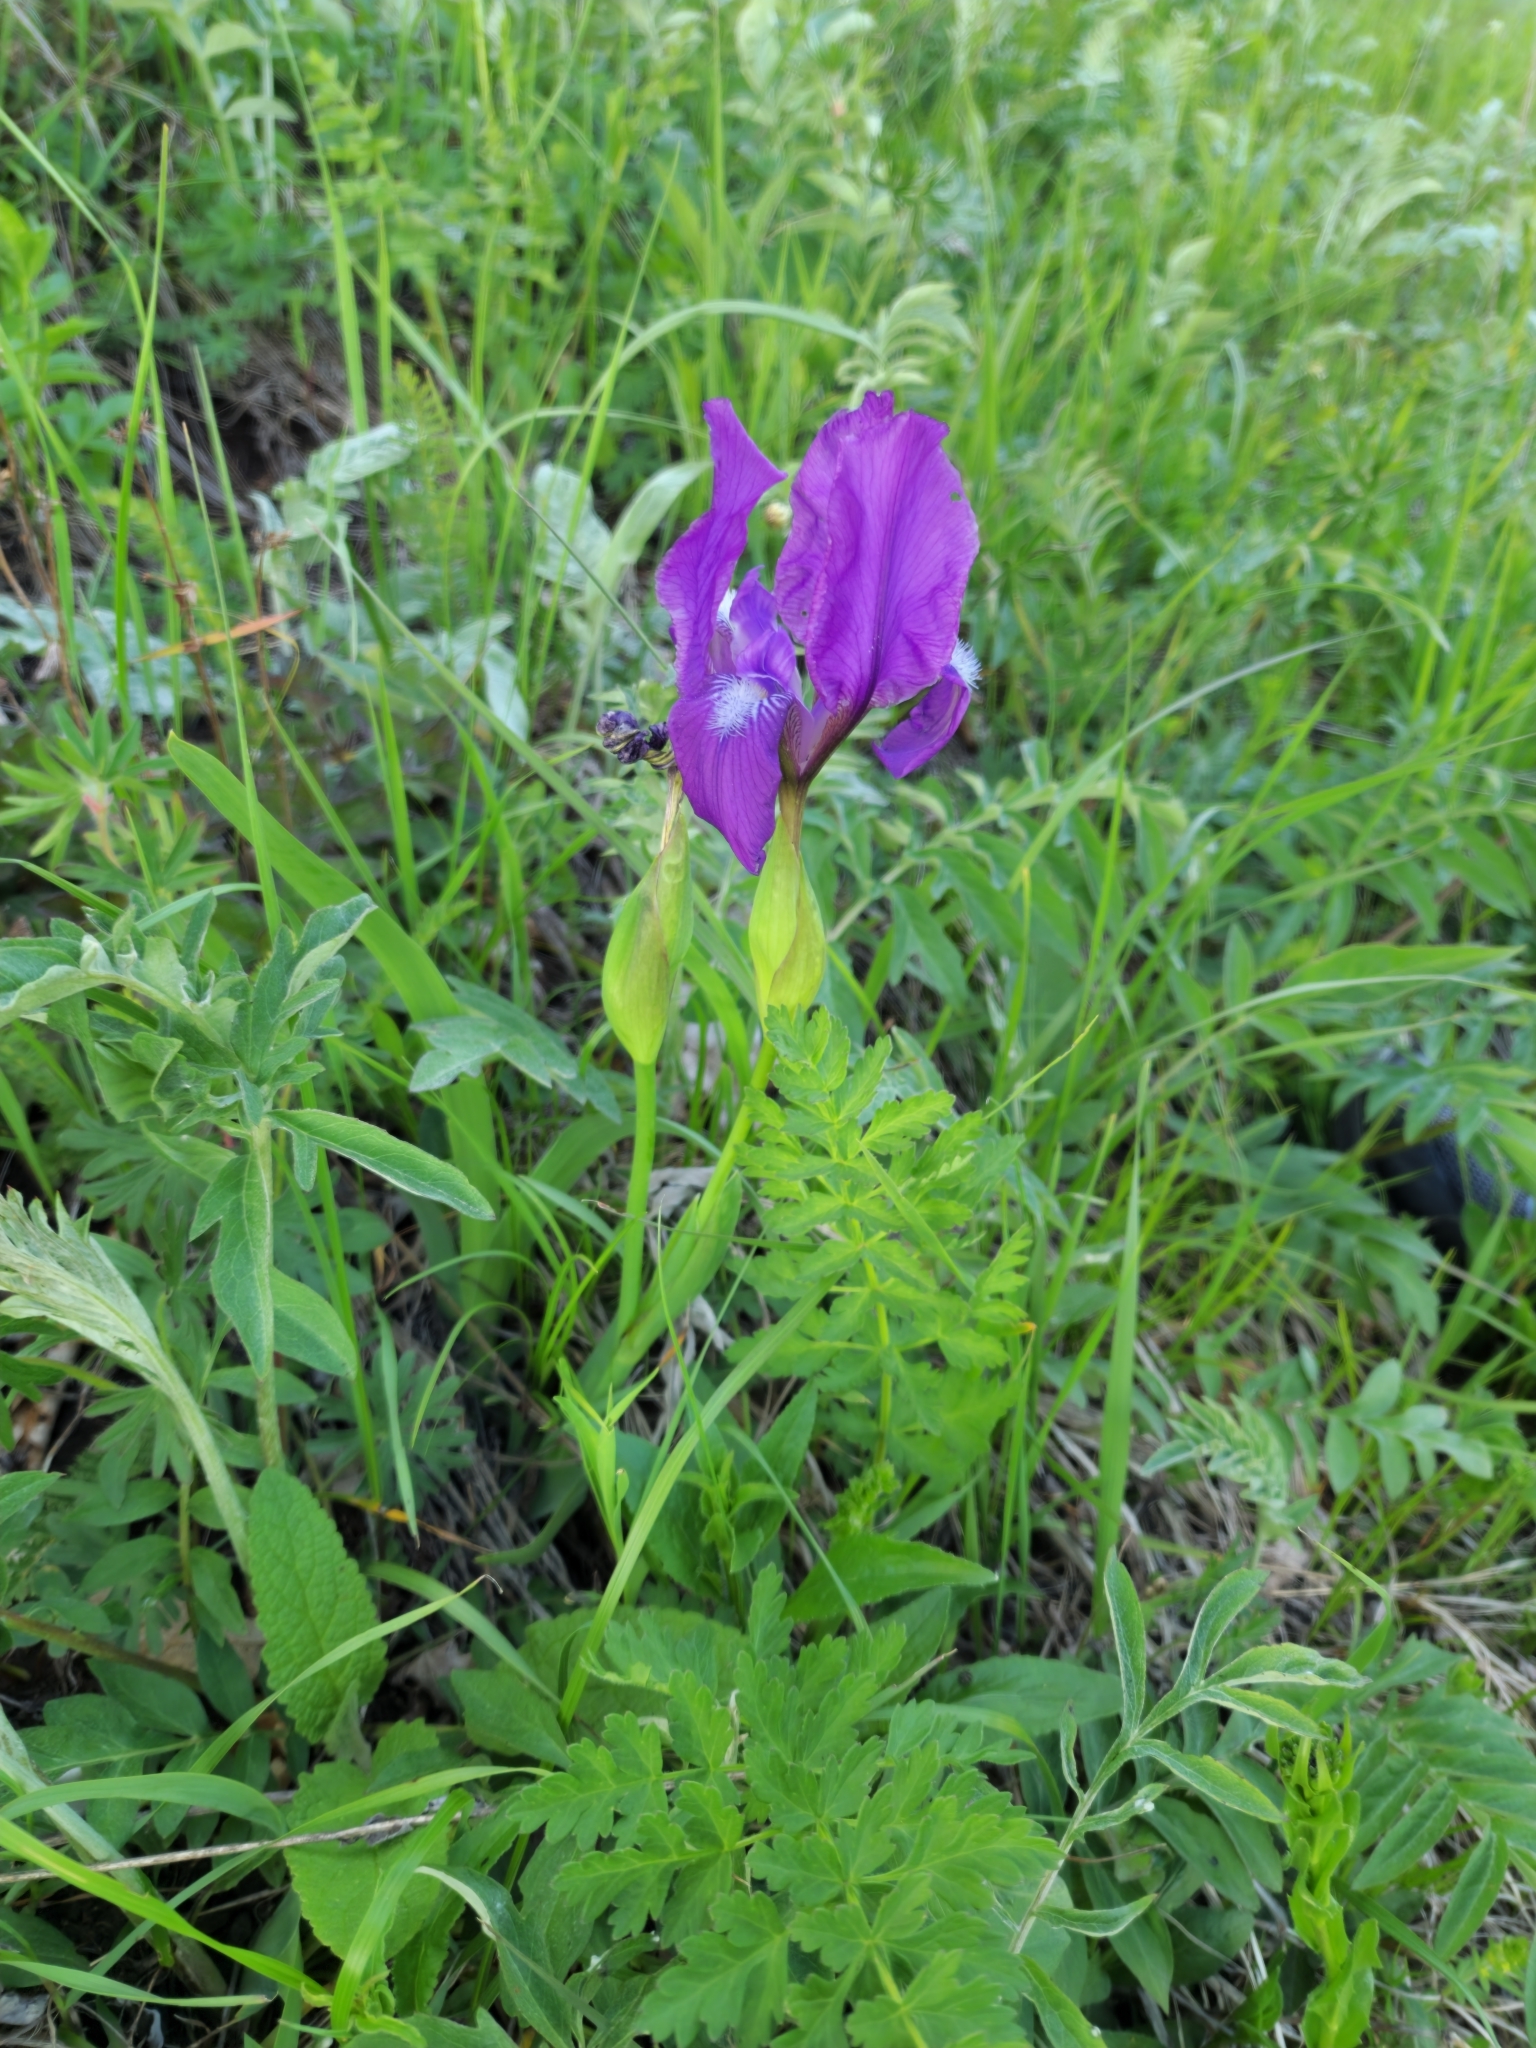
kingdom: Plantae
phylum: Tracheophyta
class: Liliopsida
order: Asparagales
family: Iridaceae
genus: Iris
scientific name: Iris furcata
